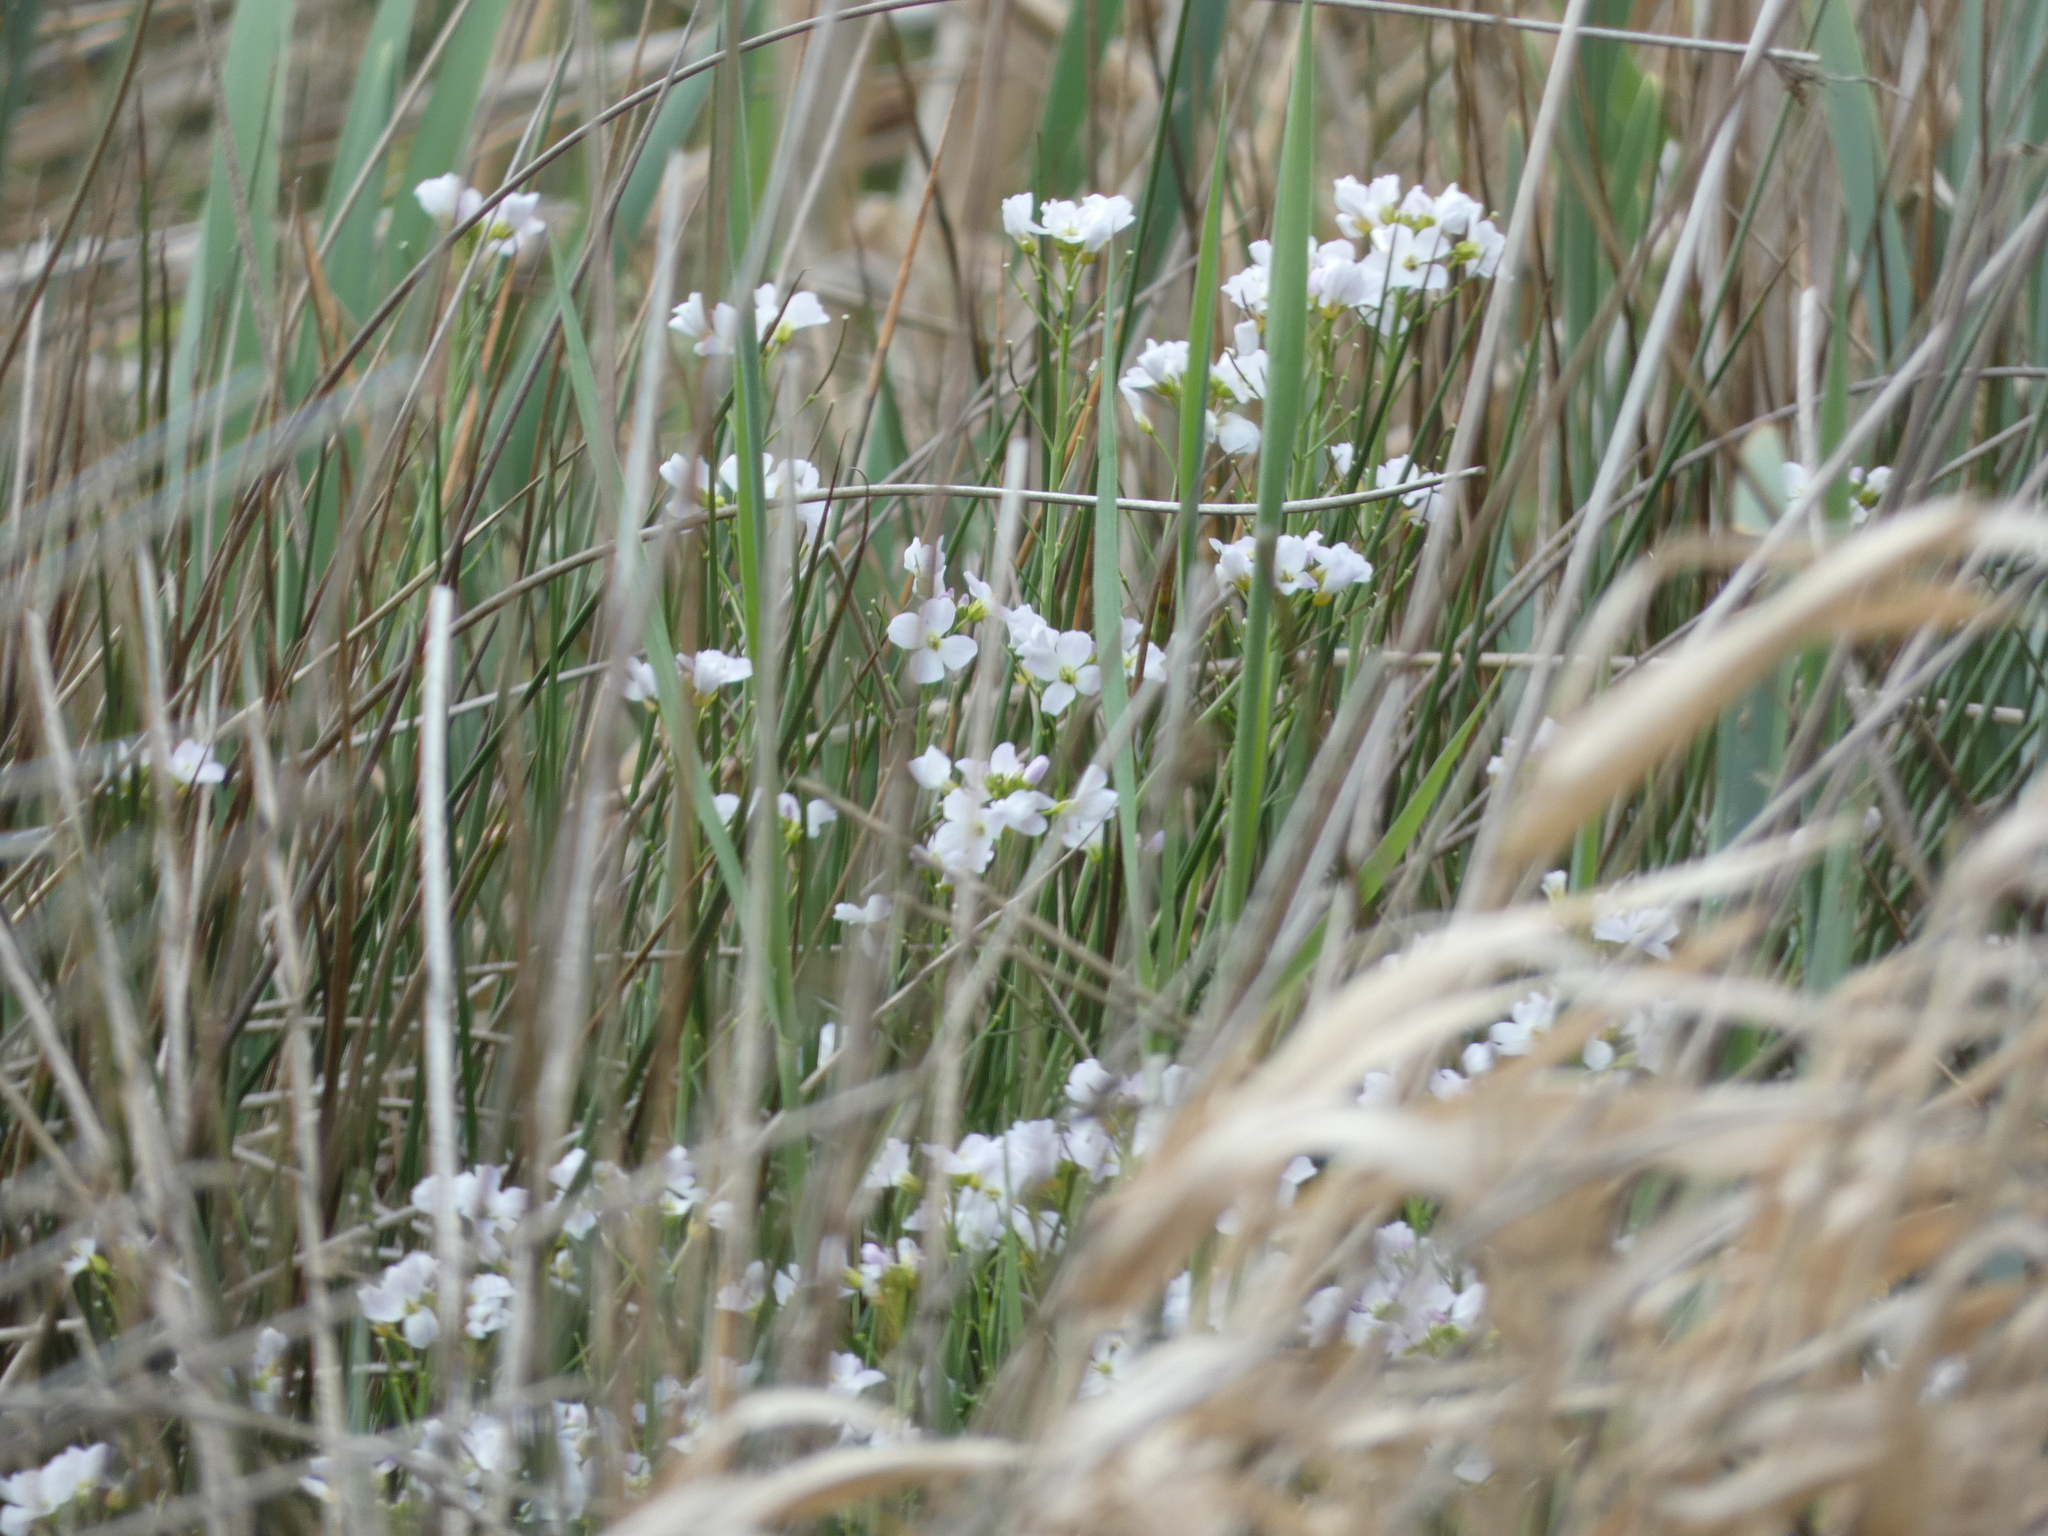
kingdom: Plantae
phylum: Tracheophyta
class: Magnoliopsida
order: Brassicales
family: Brassicaceae
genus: Cardamine
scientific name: Cardamine pratensis
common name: Cuckoo flower
